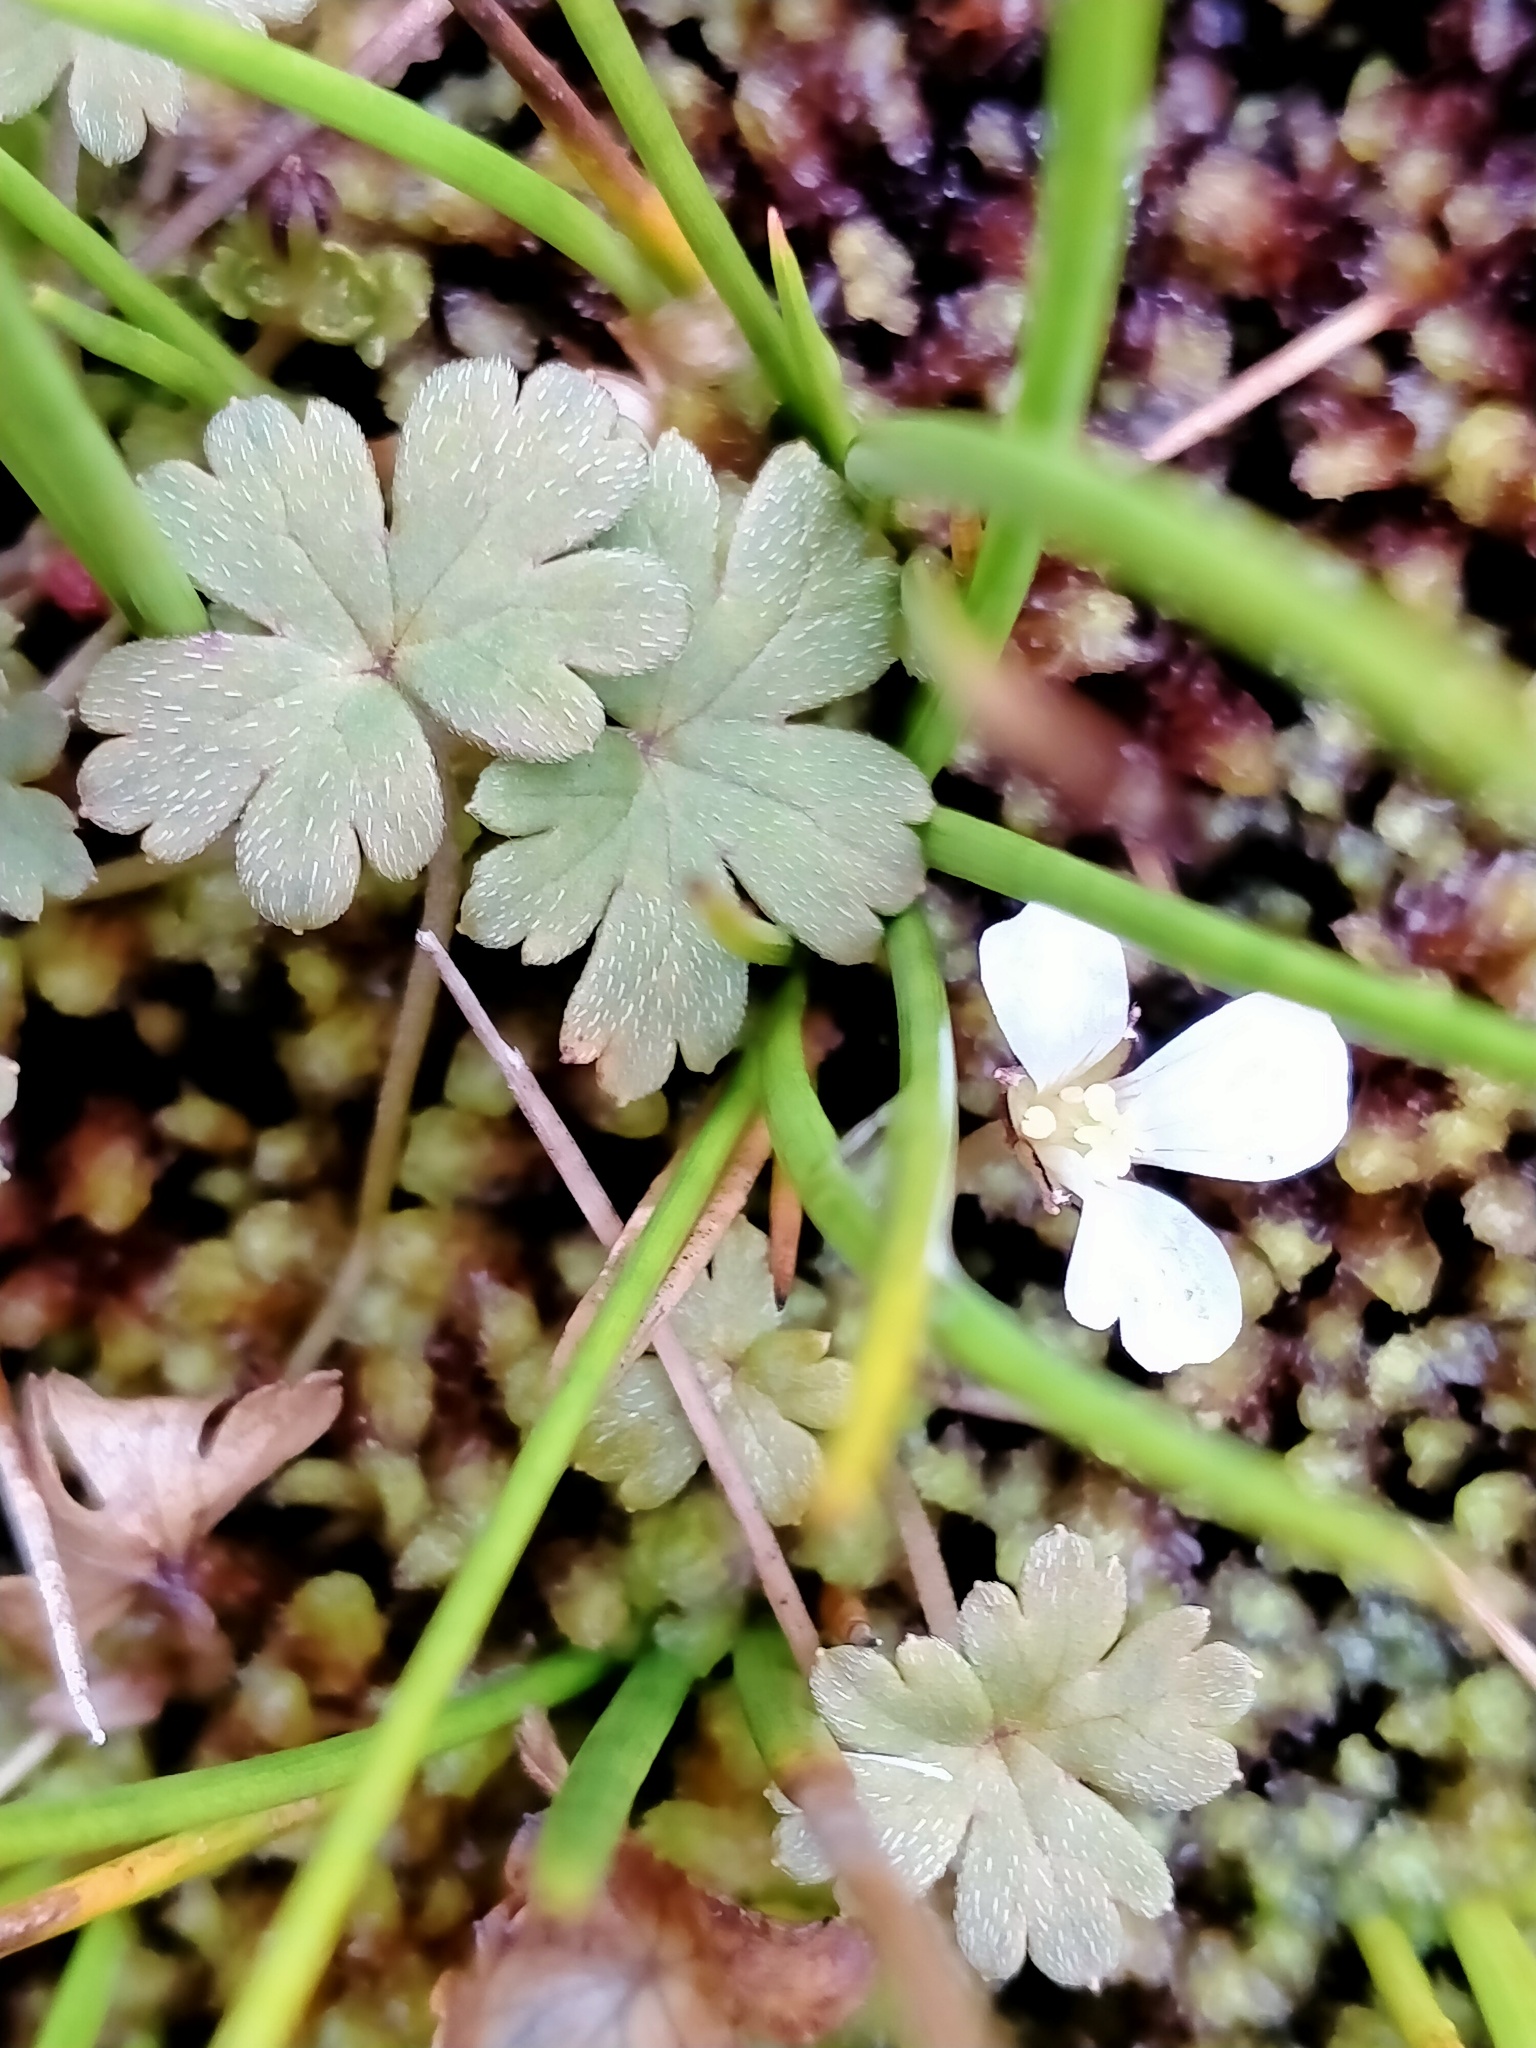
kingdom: Plantae
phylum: Tracheophyta
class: Magnoliopsida
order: Geraniales
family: Geraniaceae
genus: Geranium
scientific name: Geranium
